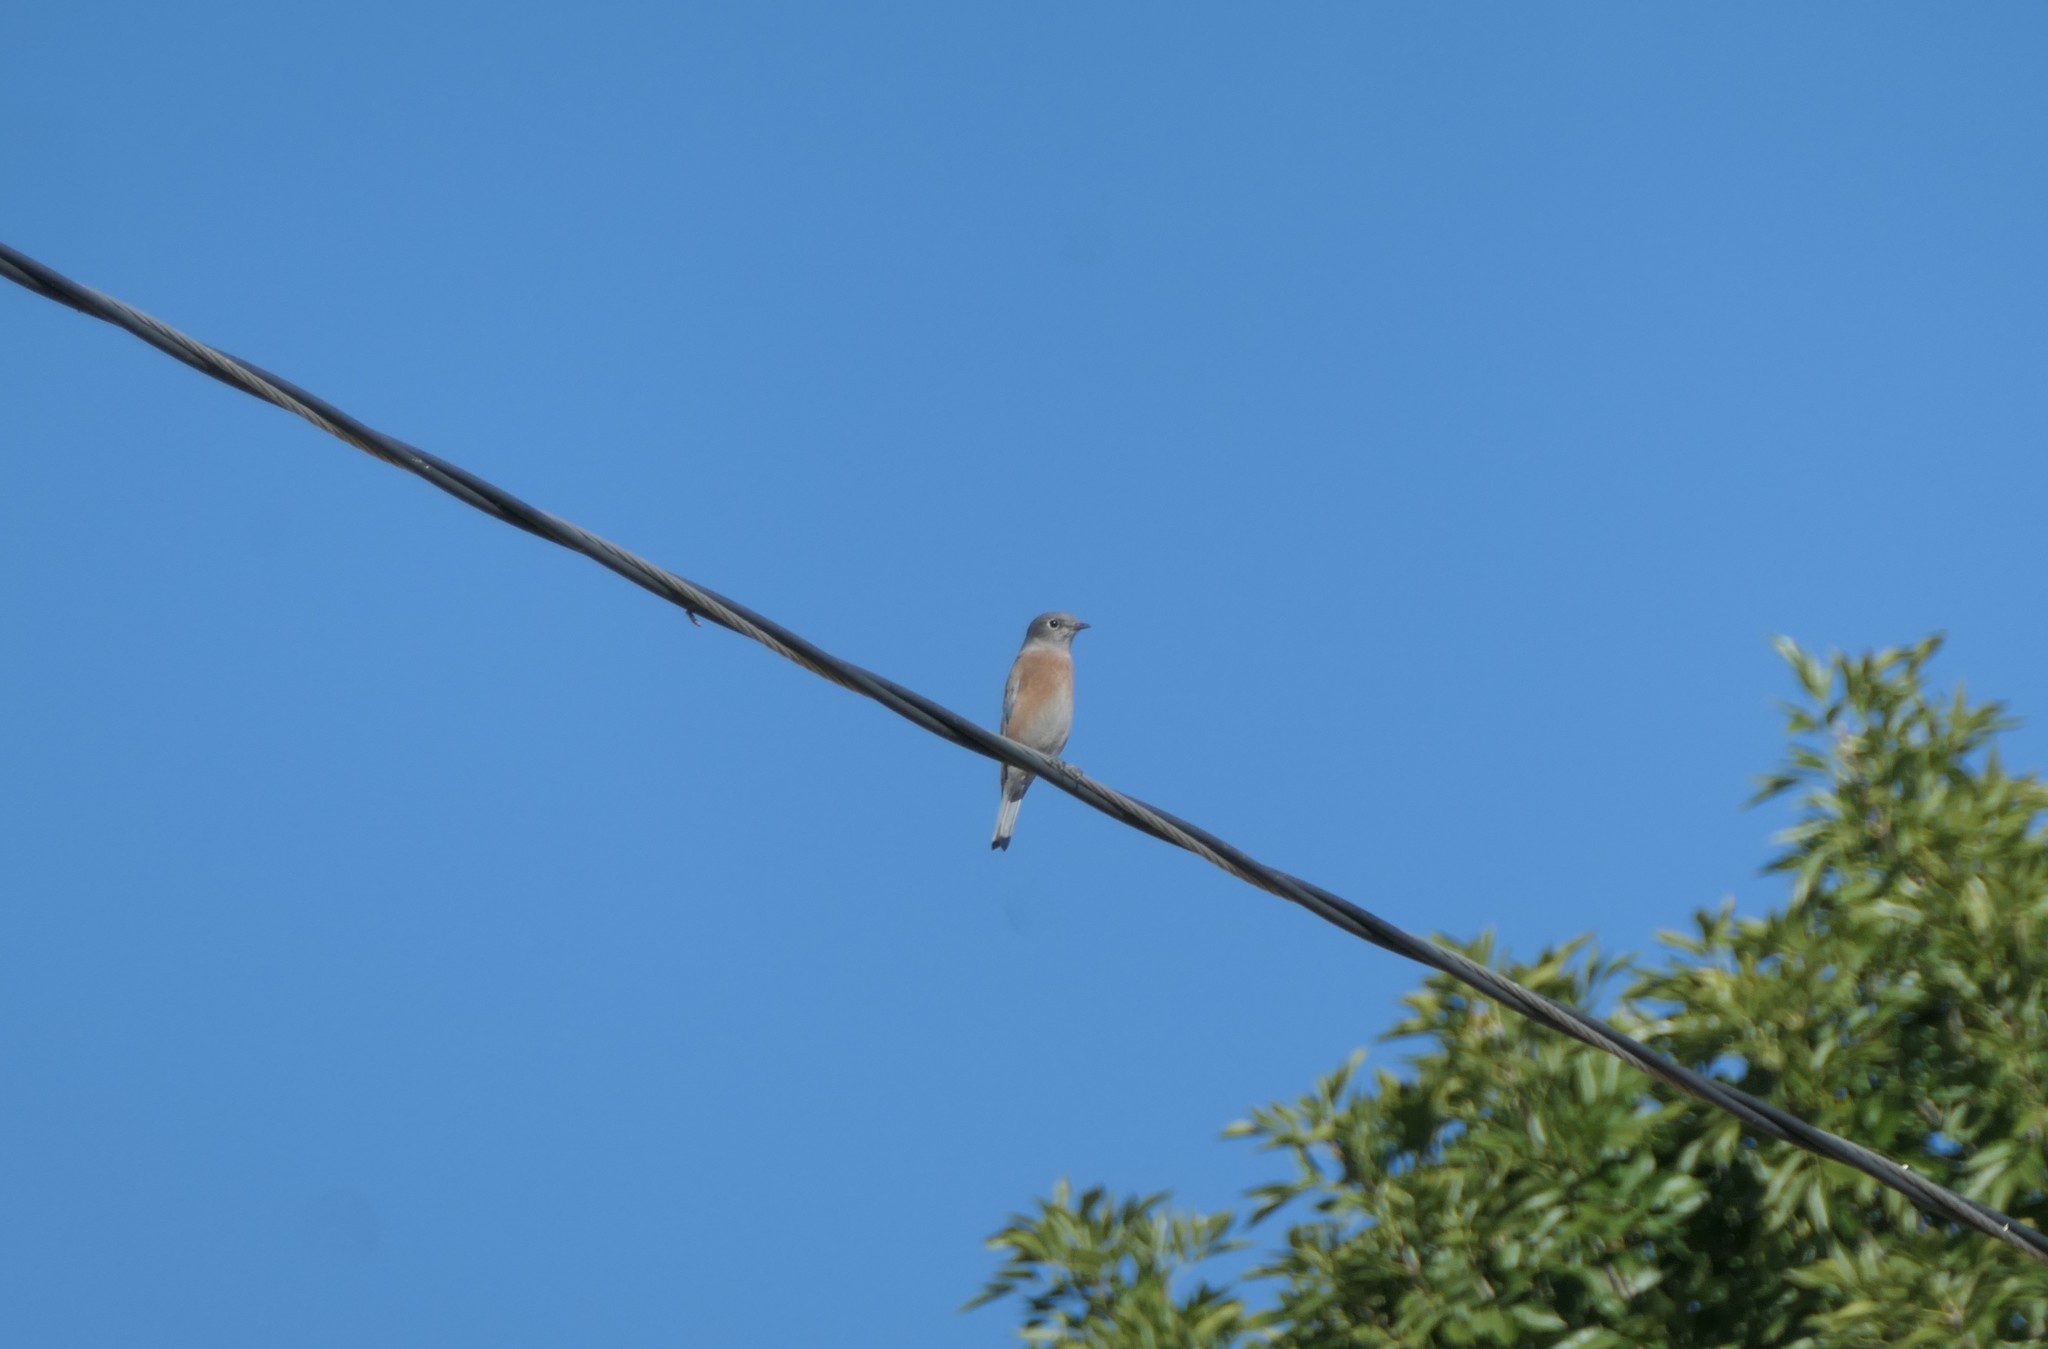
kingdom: Animalia
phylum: Chordata
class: Aves
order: Passeriformes
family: Turdidae
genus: Sialia
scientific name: Sialia mexicana
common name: Western bluebird
